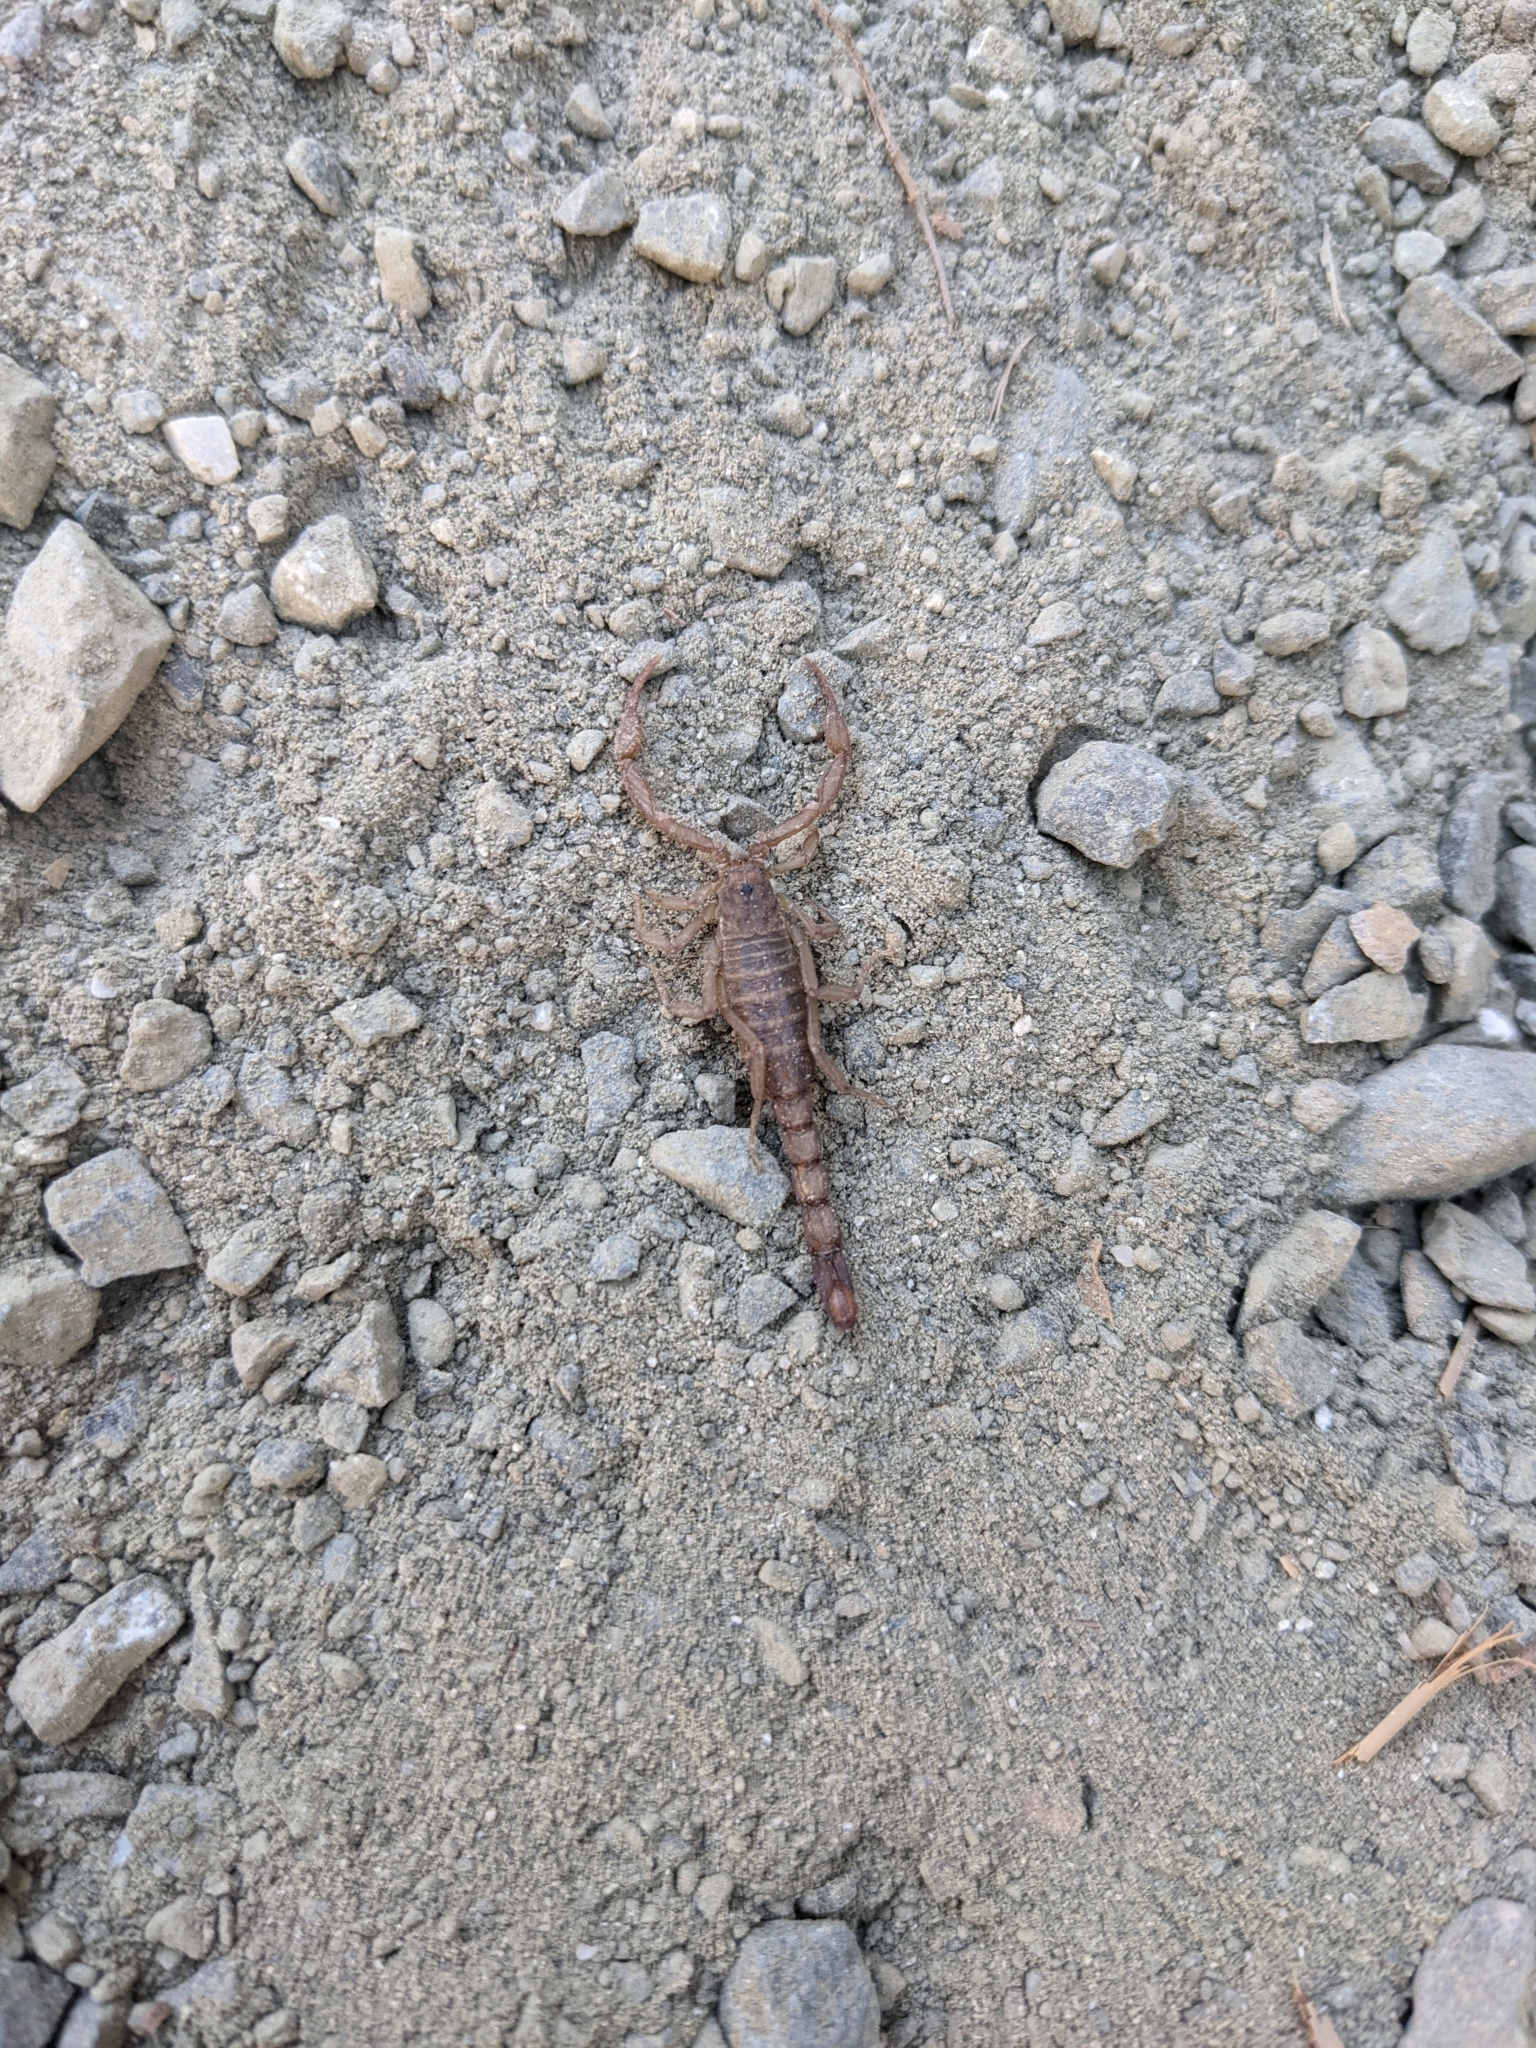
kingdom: Animalia
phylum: Arthropoda
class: Arachnida
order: Scorpiones
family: Vaejovidae
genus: Serradigitus
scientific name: Serradigitus gertschi
